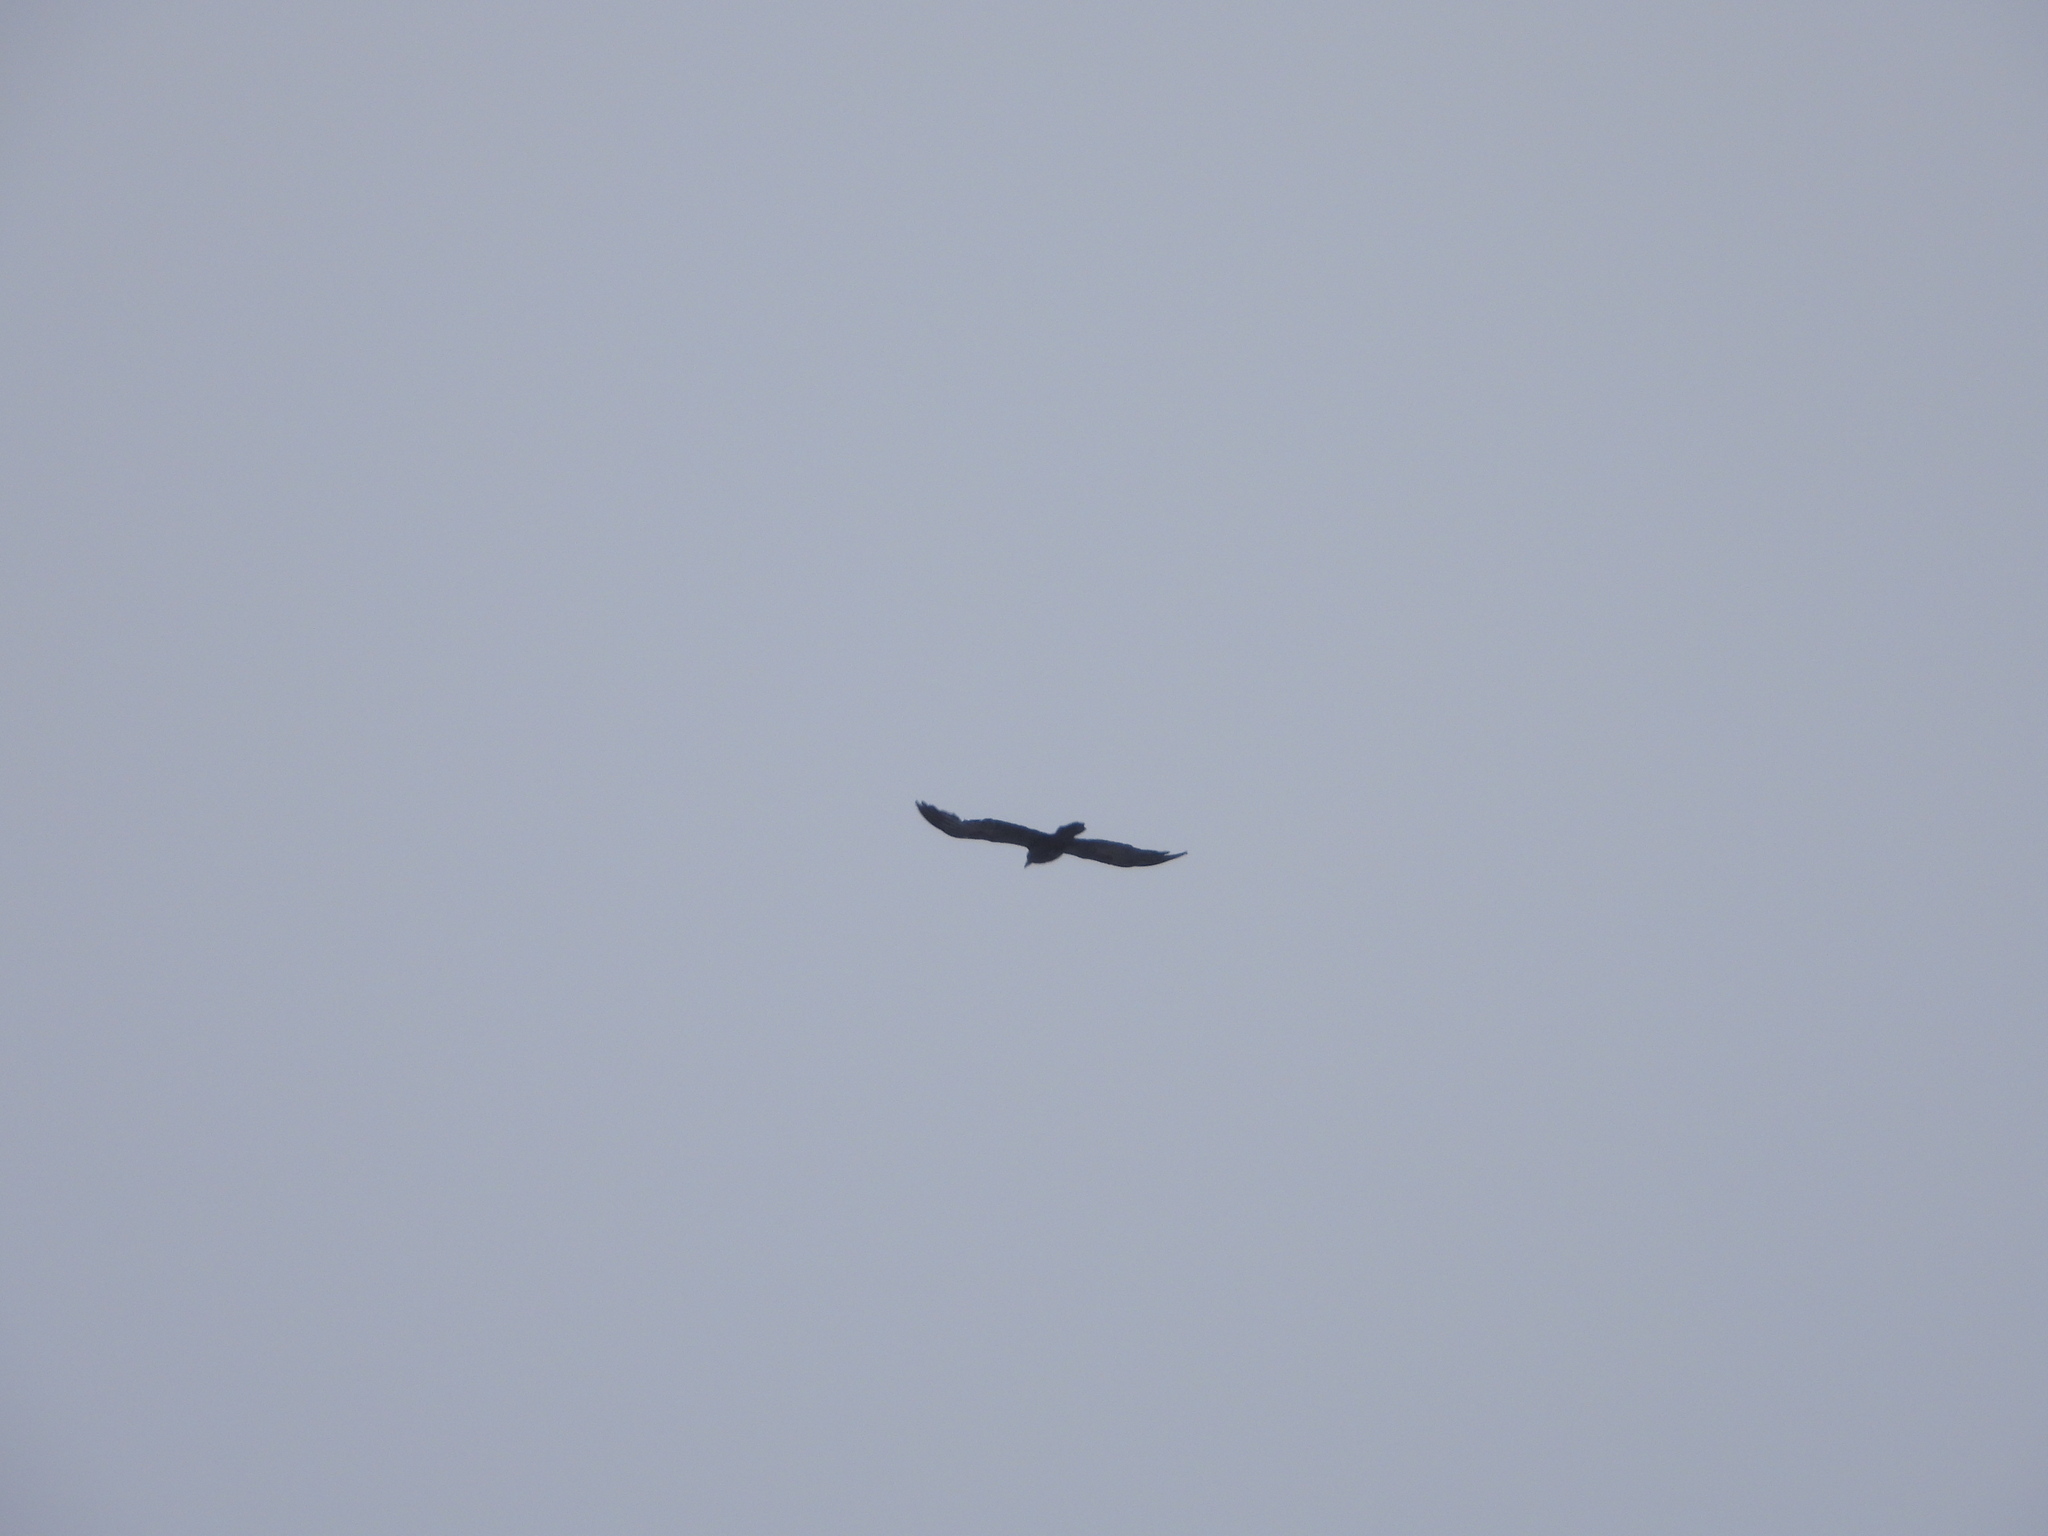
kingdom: Animalia
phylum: Chordata
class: Aves
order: Passeriformes
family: Corvidae
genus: Corvus
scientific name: Corvus corax
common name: Common raven
